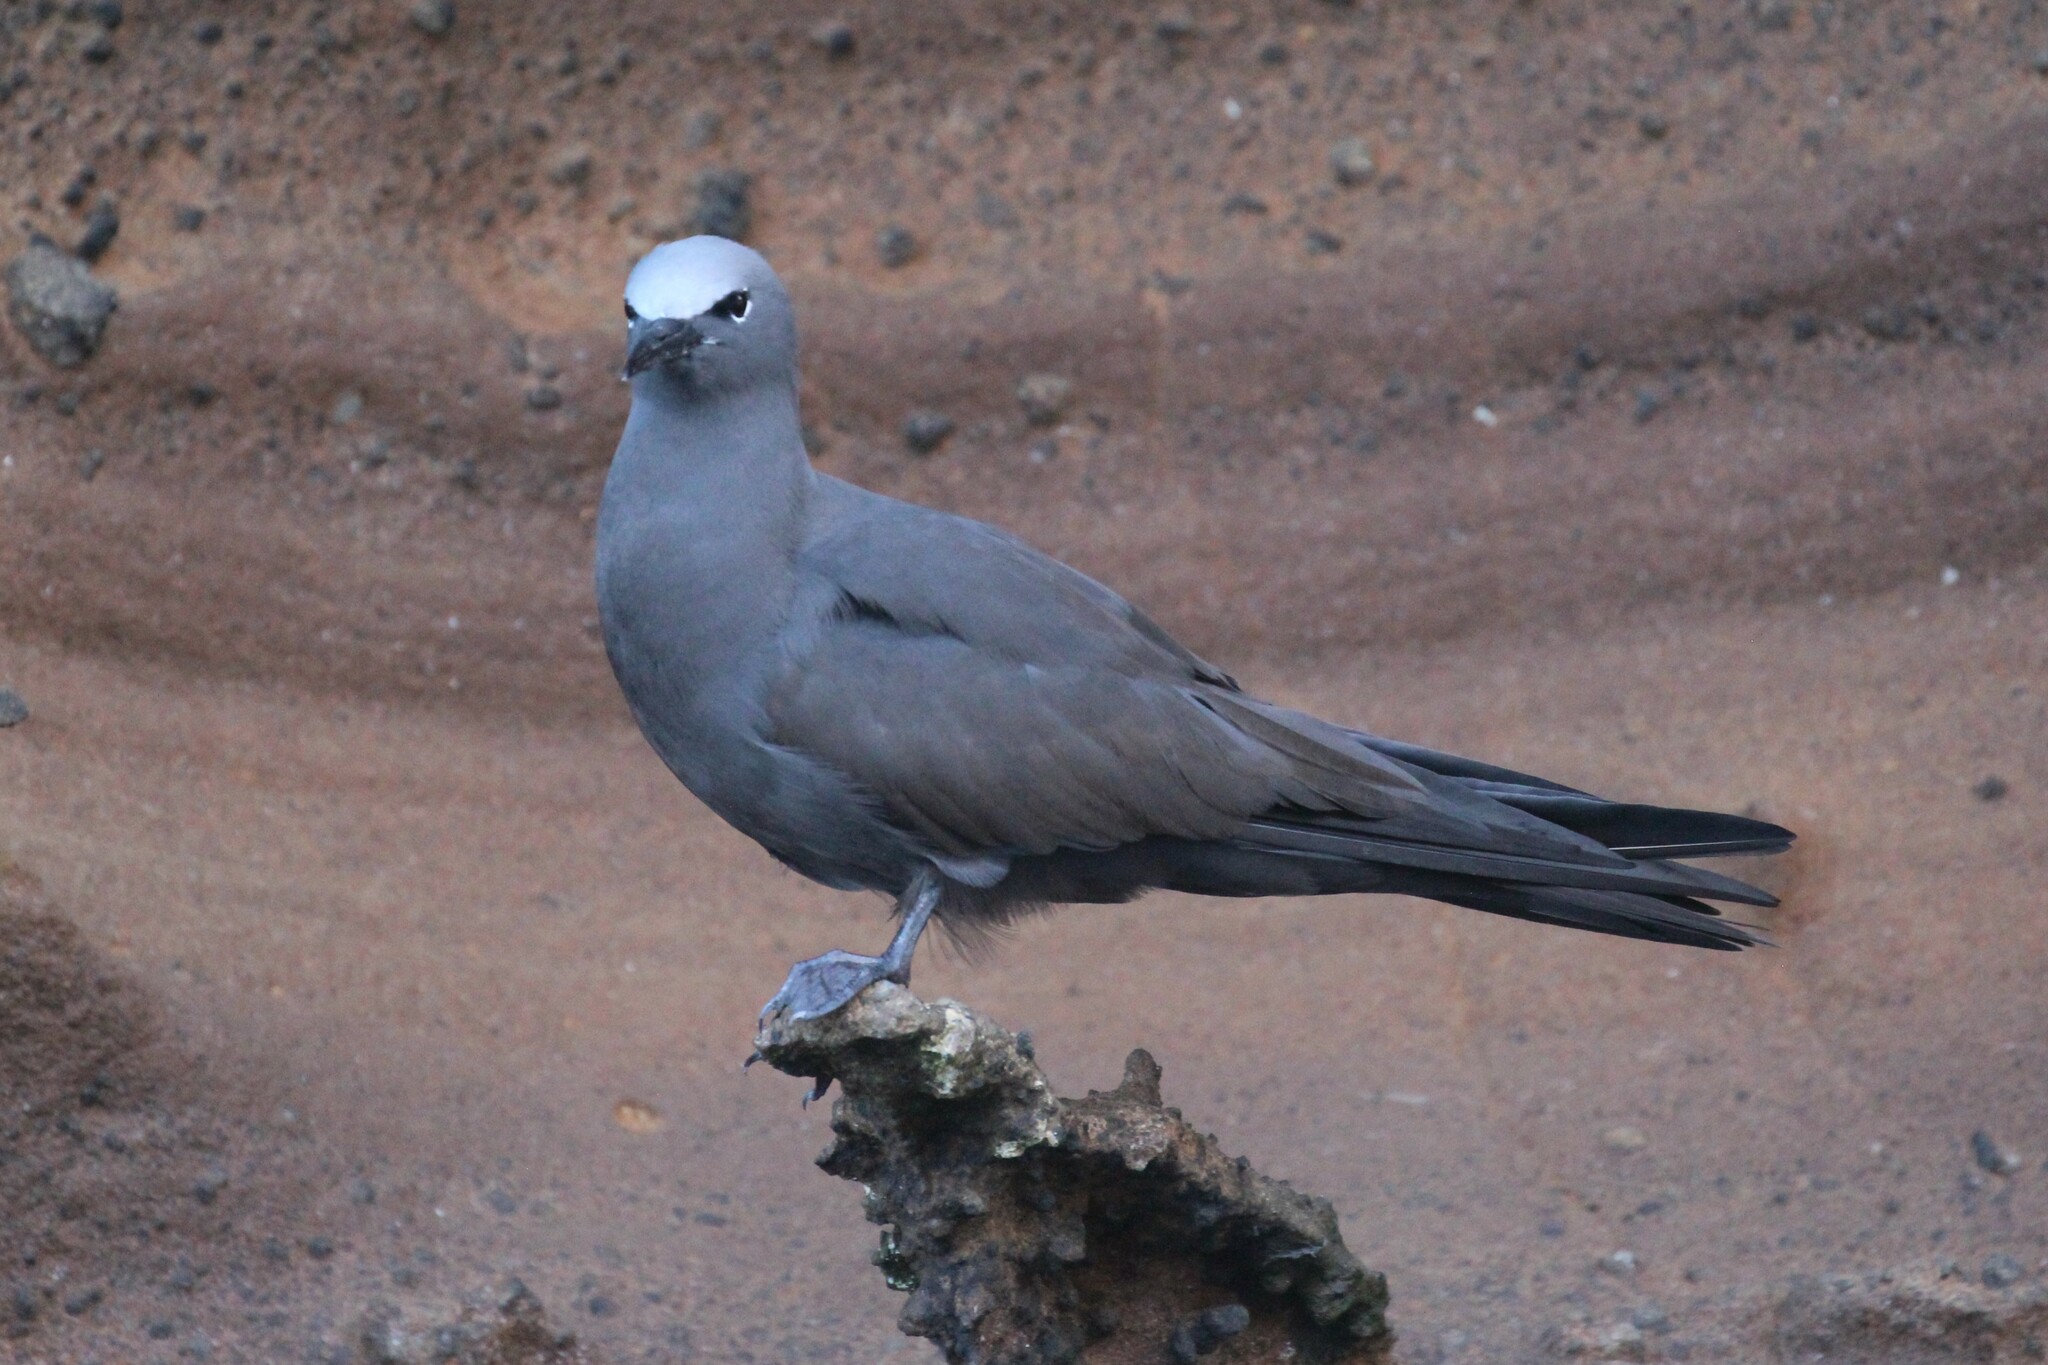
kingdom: Animalia
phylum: Chordata
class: Aves
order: Charadriiformes
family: Laridae
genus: Anous
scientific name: Anous stolidus
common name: Brown noddy
